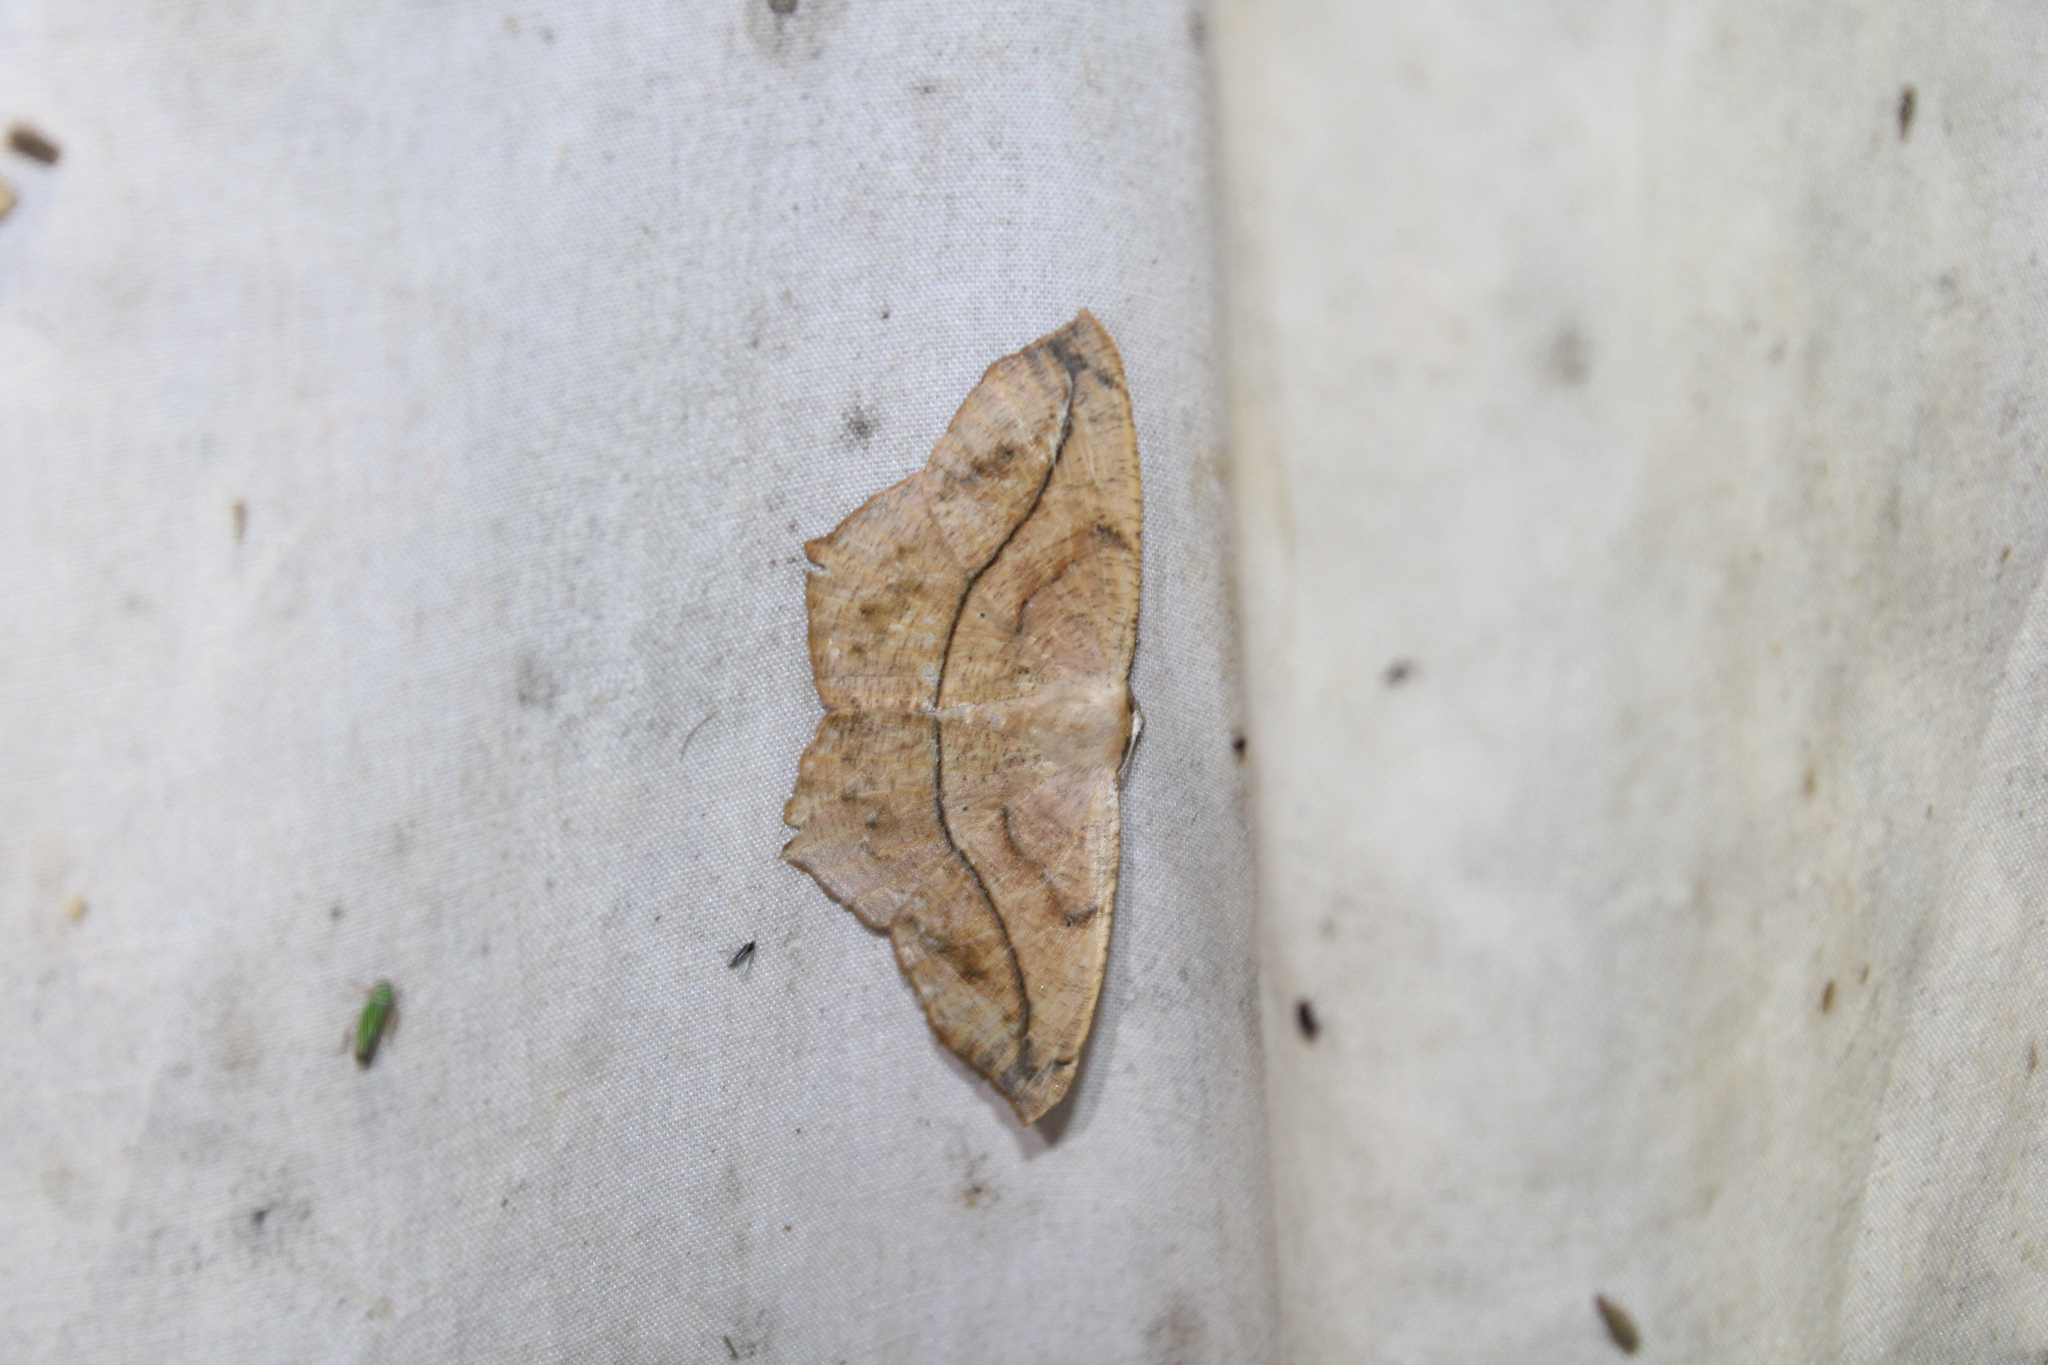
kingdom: Animalia
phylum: Arthropoda
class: Insecta
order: Lepidoptera
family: Geometridae
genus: Prochoerodes
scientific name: Prochoerodes lineola
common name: Large maple spanworm
